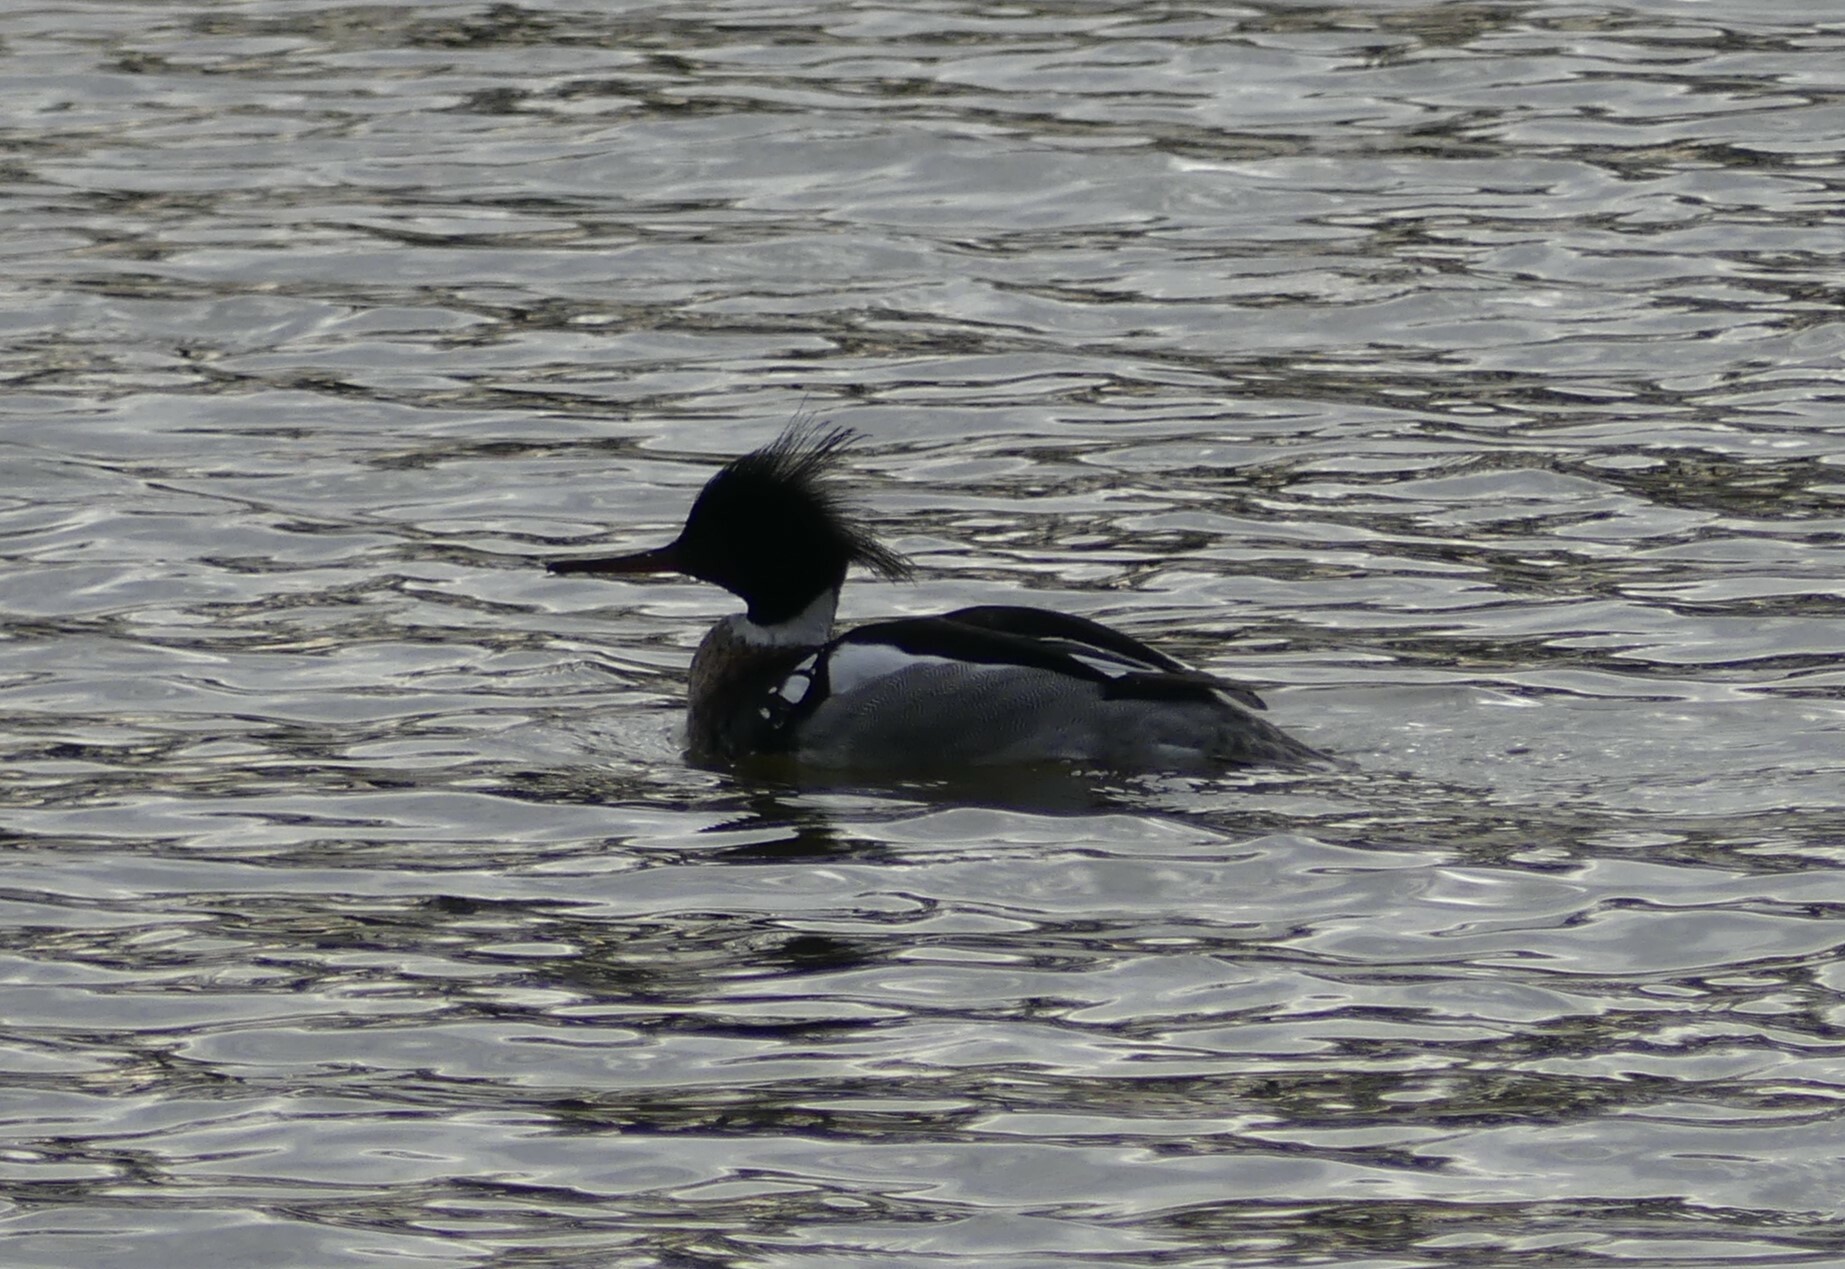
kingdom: Animalia
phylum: Chordata
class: Aves
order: Anseriformes
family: Anatidae
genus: Mergus
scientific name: Mergus serrator
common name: Red-breasted merganser
